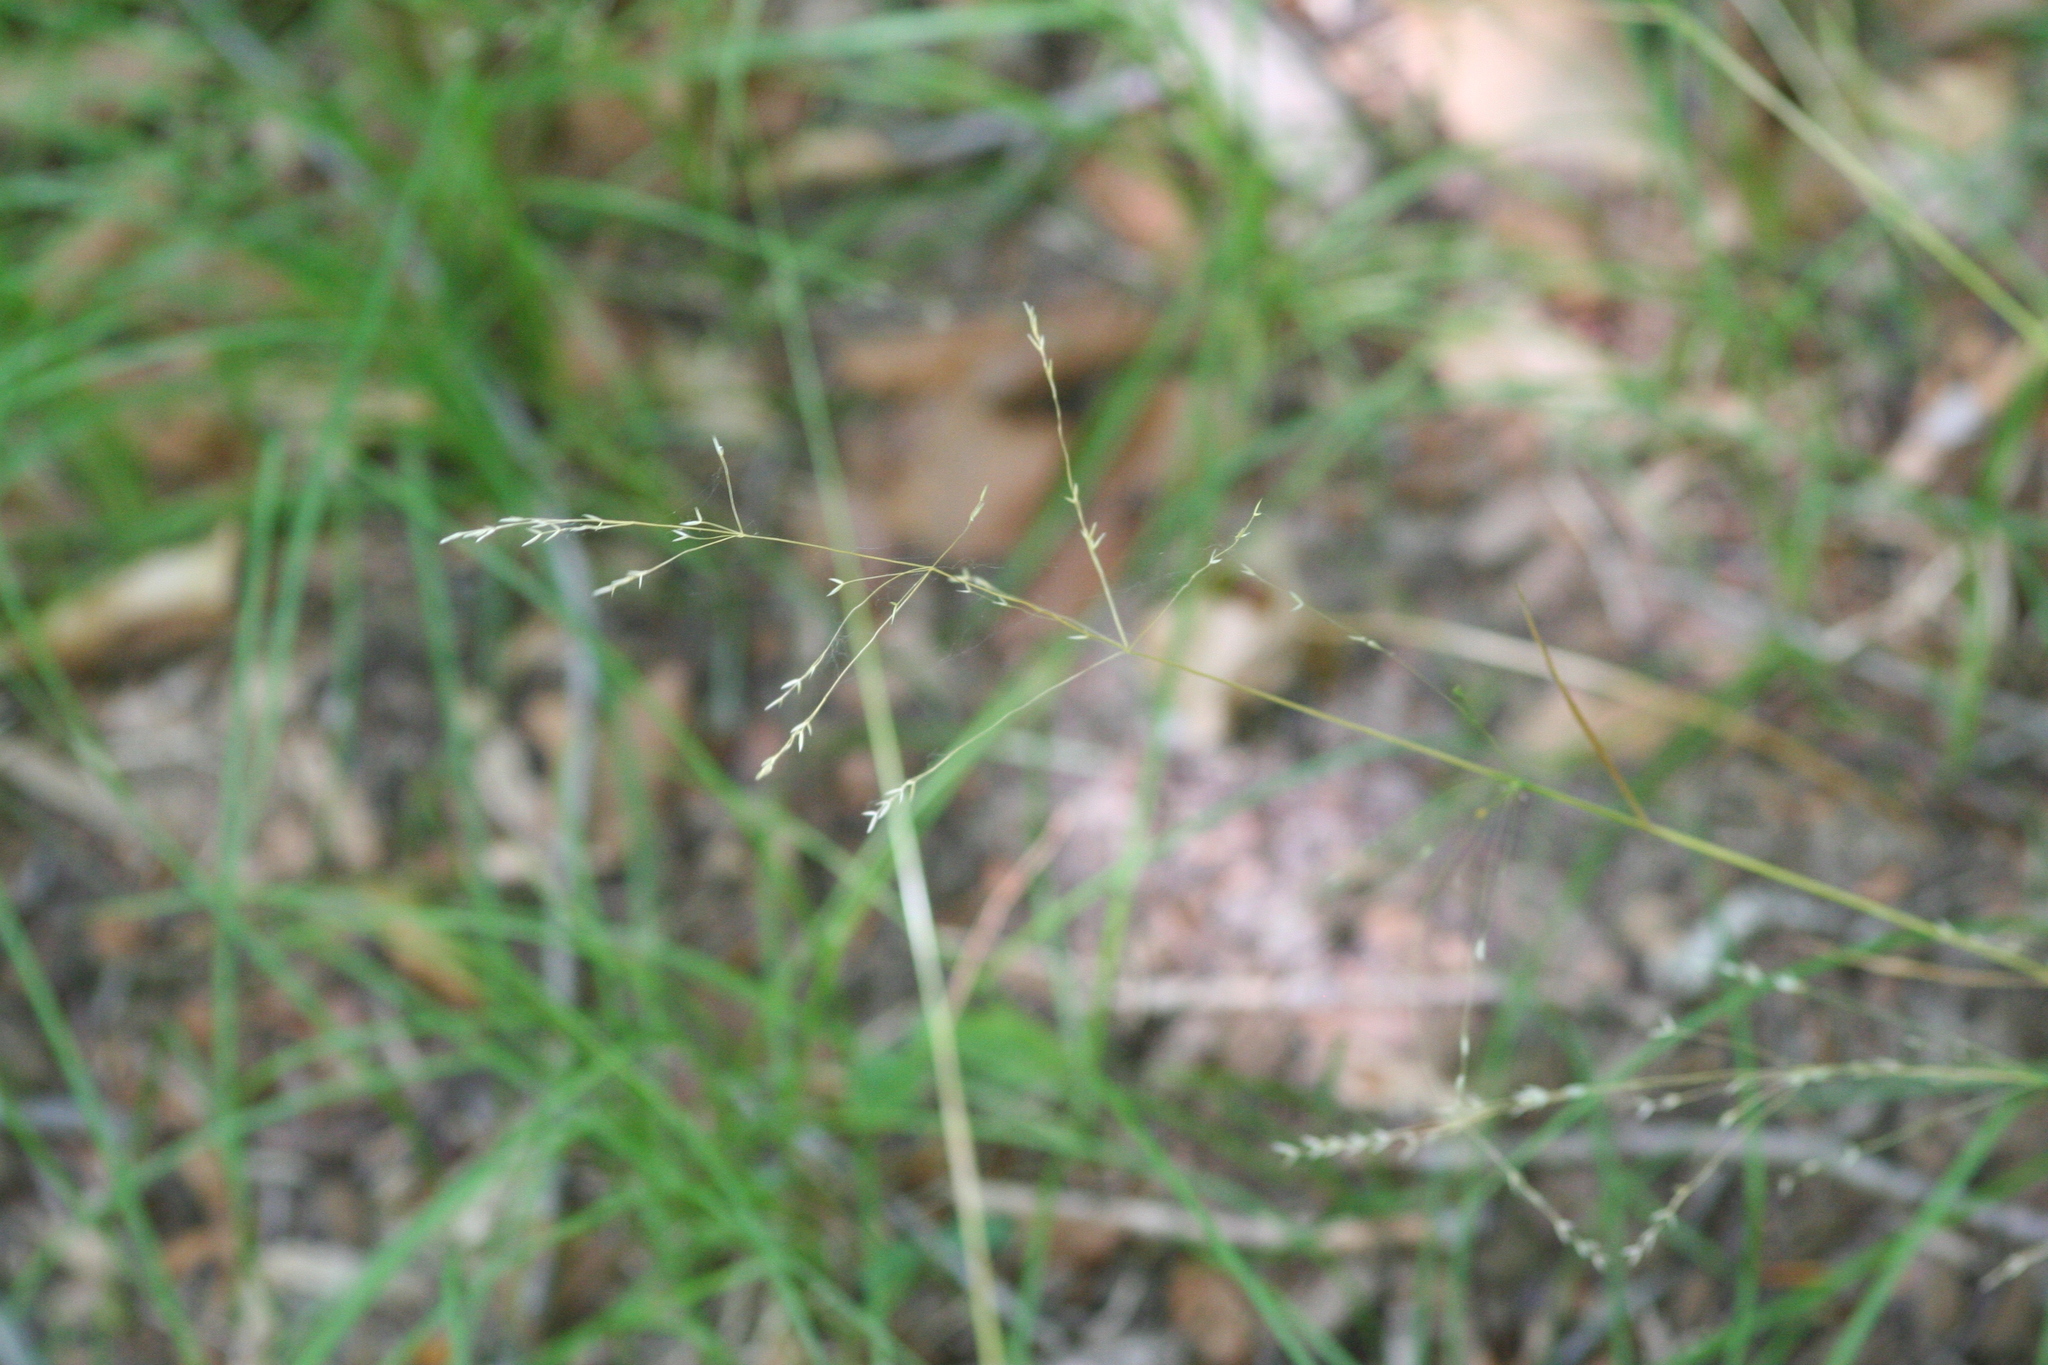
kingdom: Plantae
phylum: Tracheophyta
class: Liliopsida
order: Poales
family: Poaceae
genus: Festuca
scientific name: Festuca subverticillata
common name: Nodding fescue
